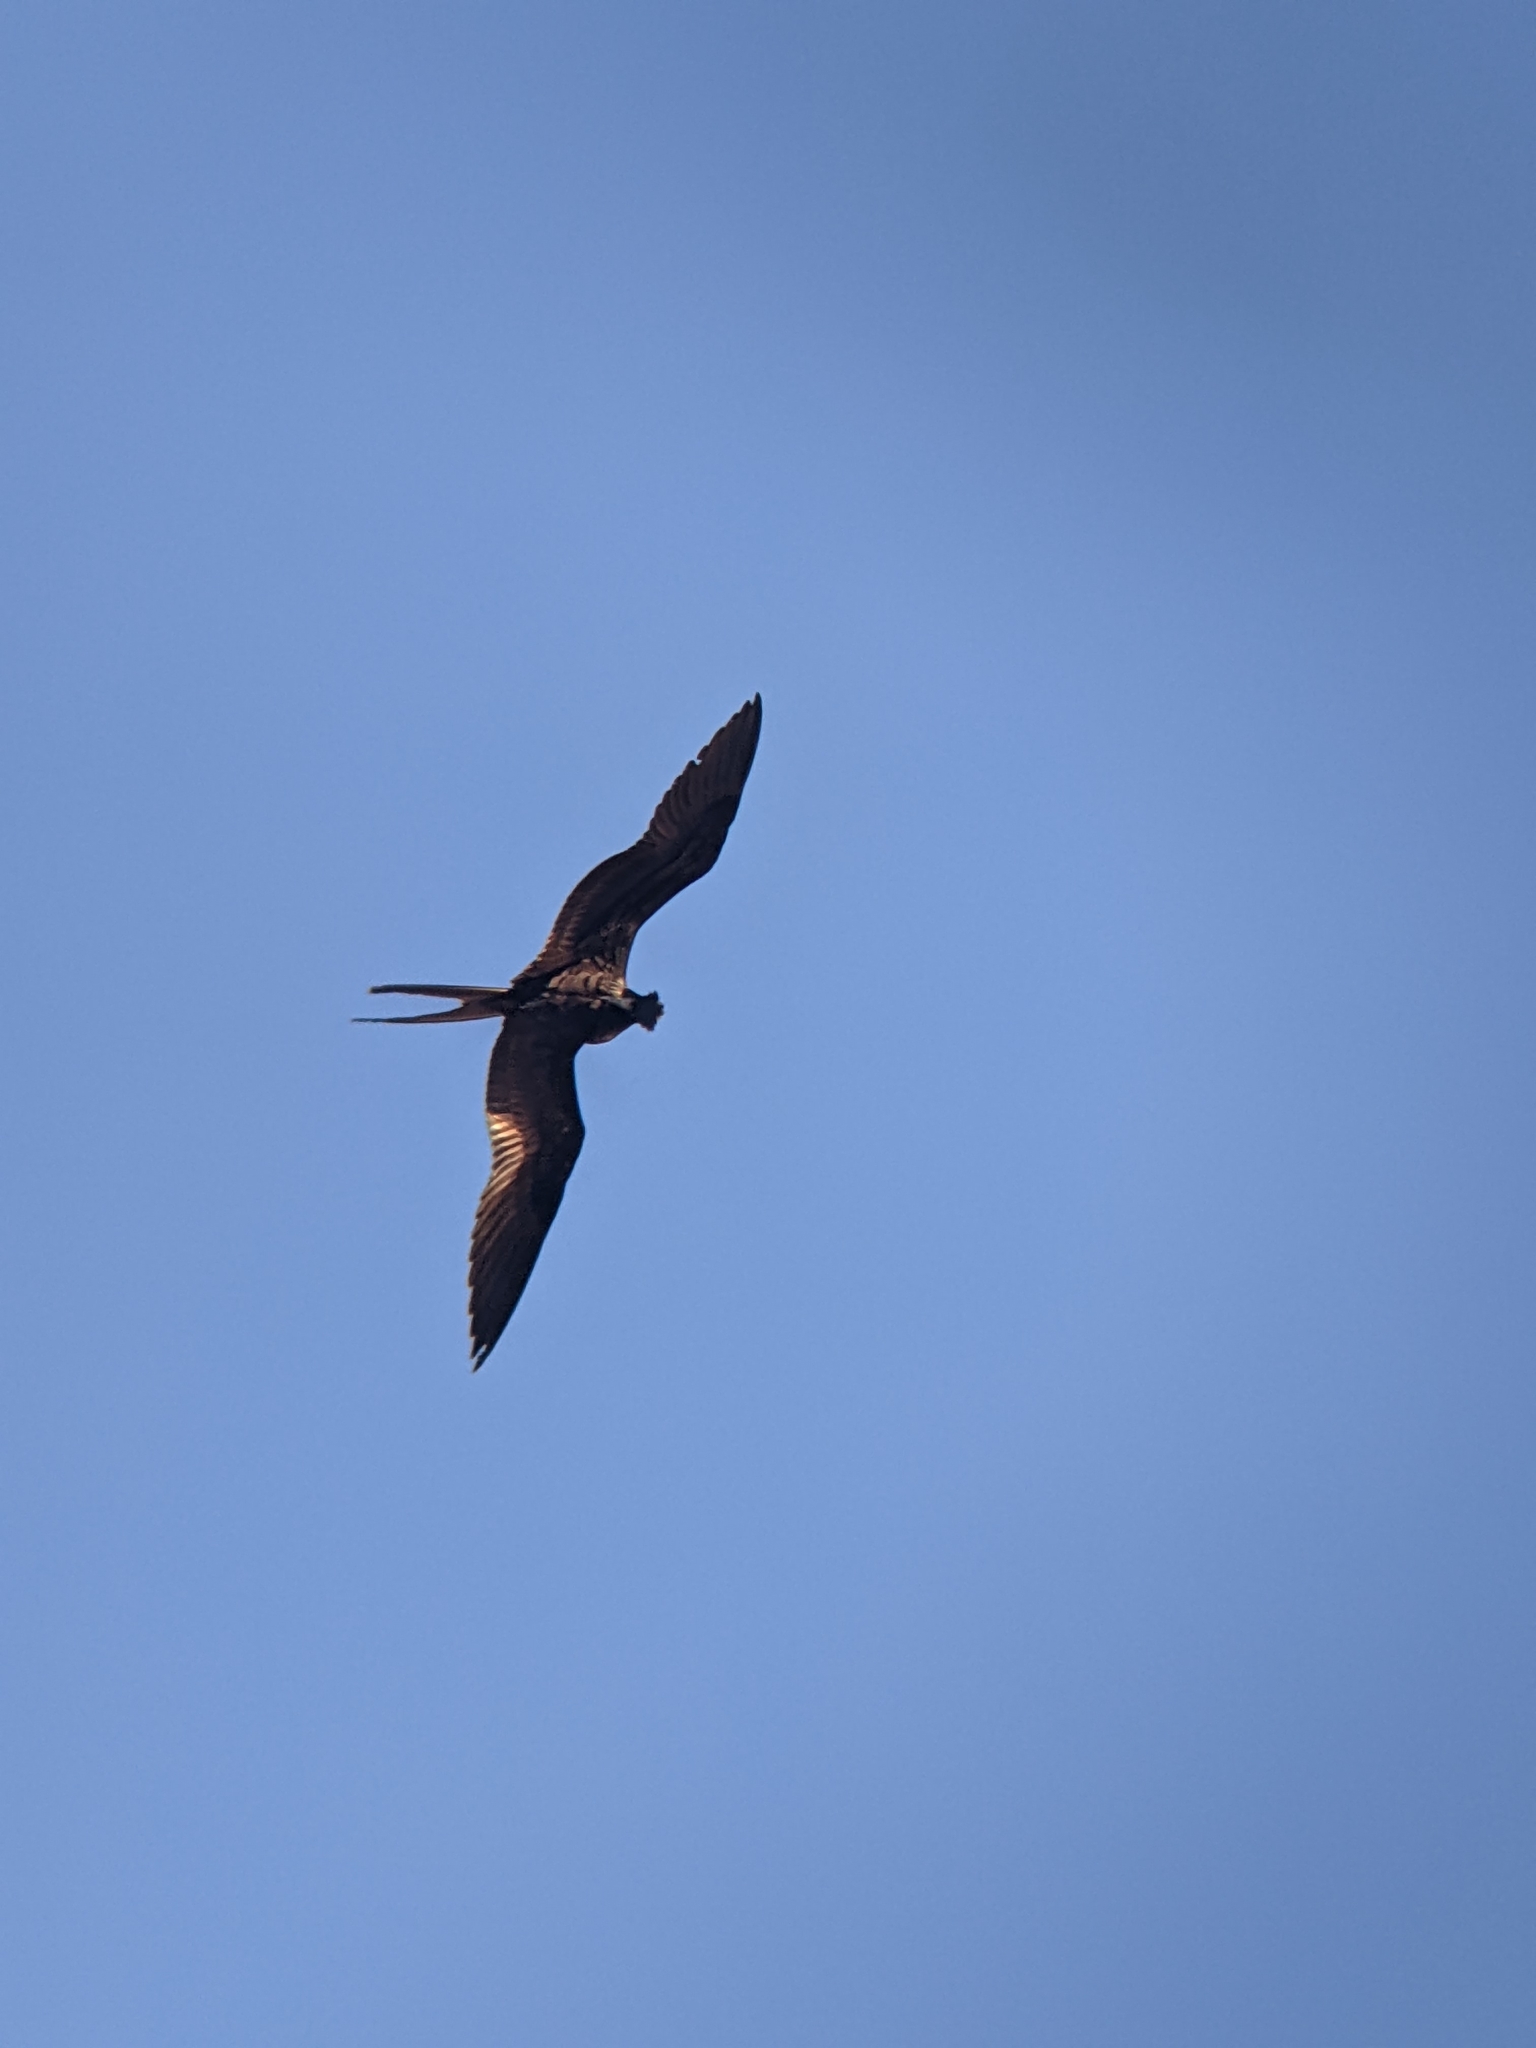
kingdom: Animalia
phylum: Chordata
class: Aves
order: Suliformes
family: Fregatidae
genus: Fregata
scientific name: Fregata magnificens
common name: Magnificent frigatebird
